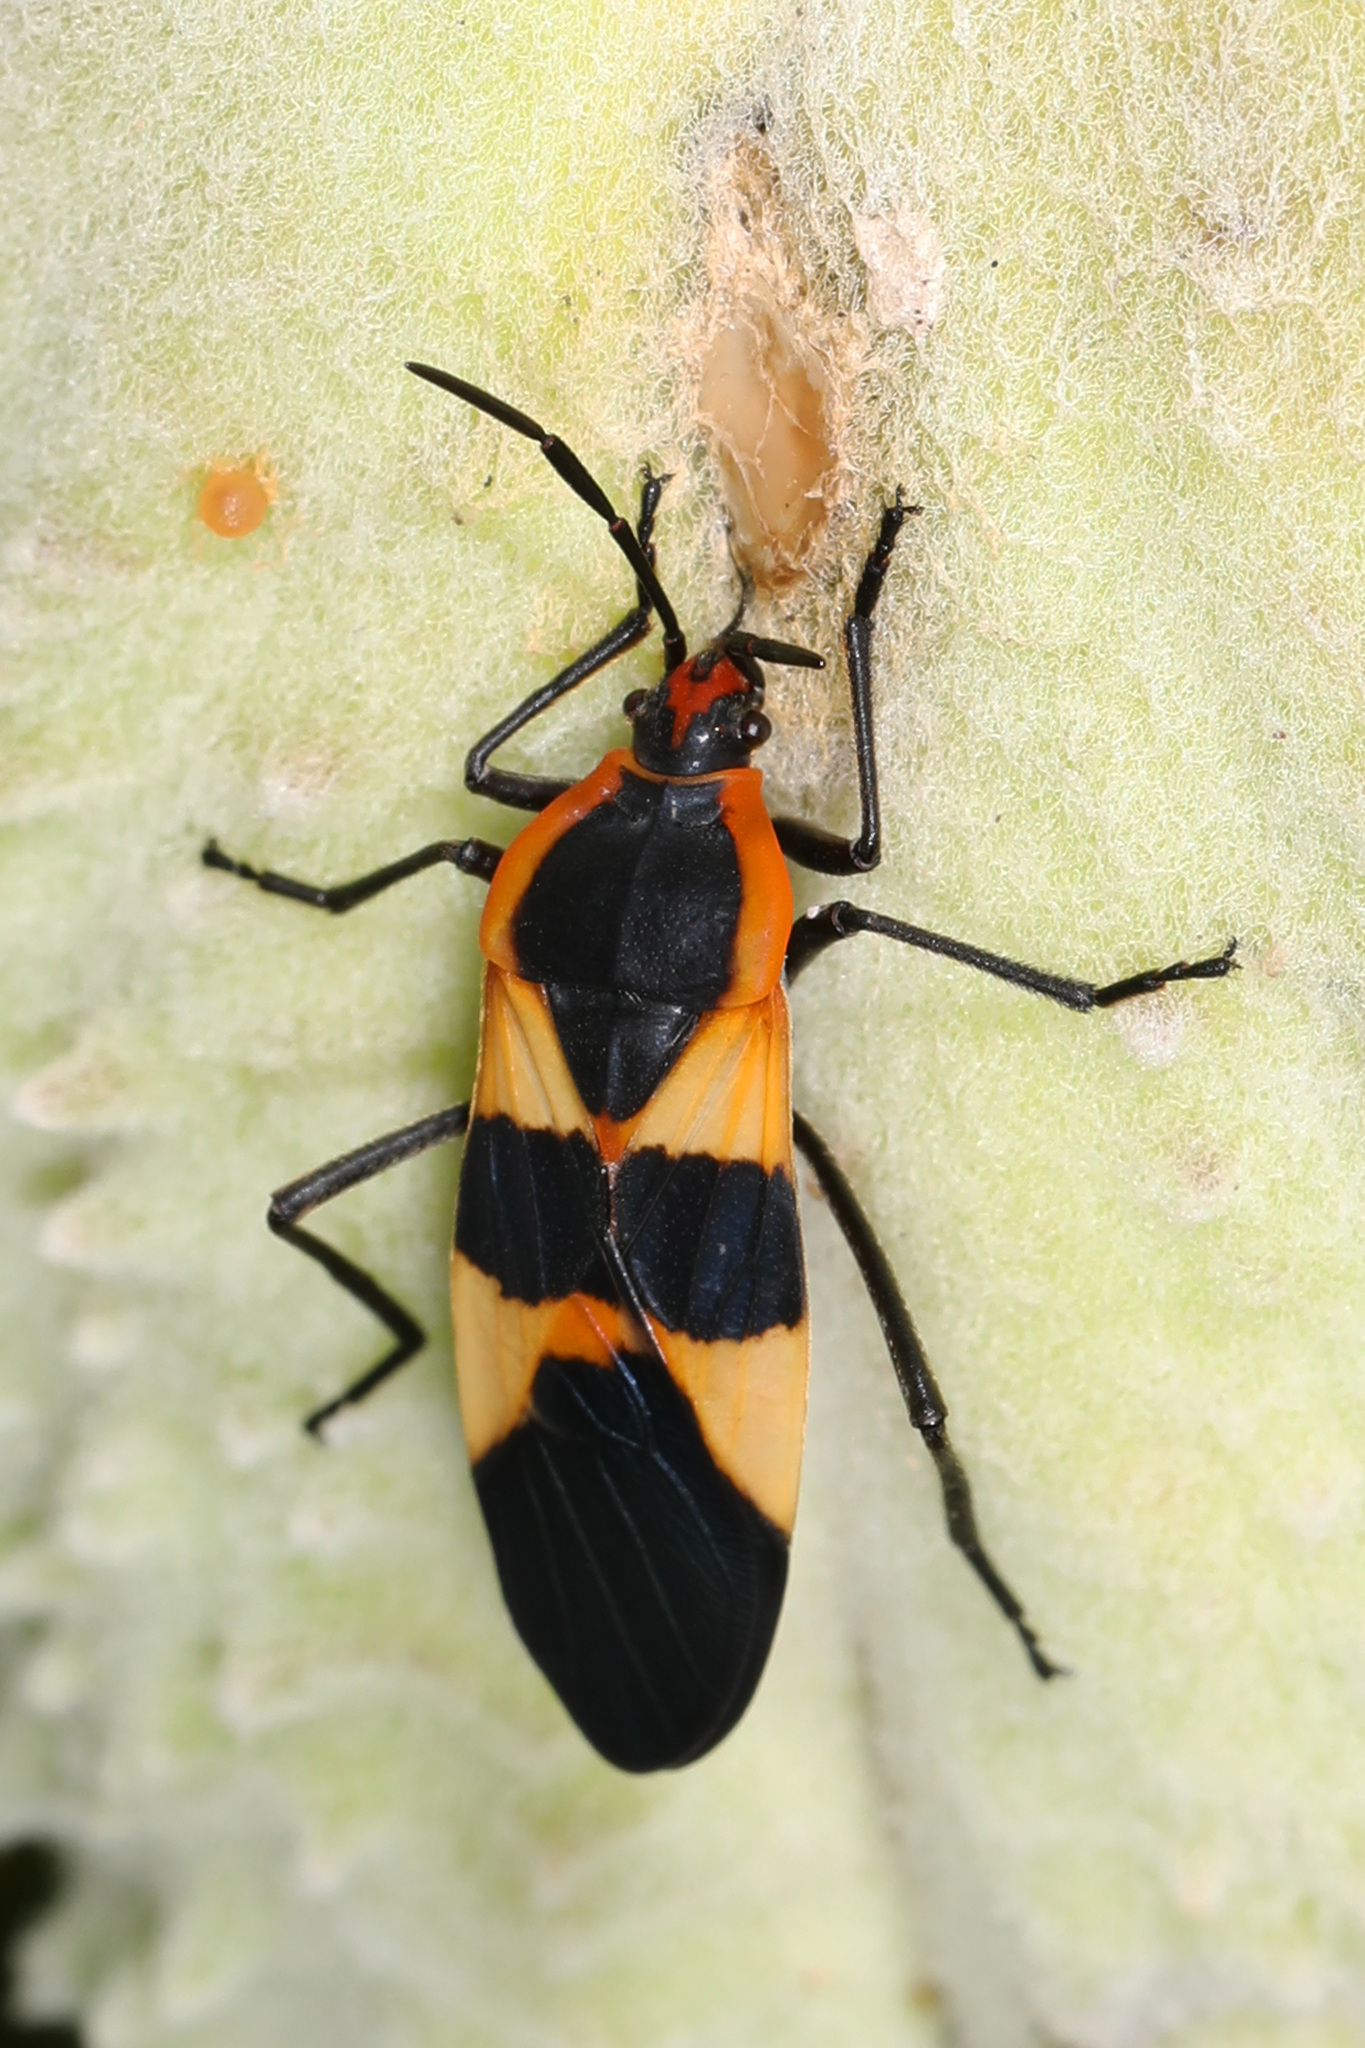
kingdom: Animalia
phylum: Arthropoda
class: Insecta
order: Hemiptera
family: Lygaeidae
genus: Oncopeltus
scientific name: Oncopeltus fasciatus
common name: Large milkweed bug
